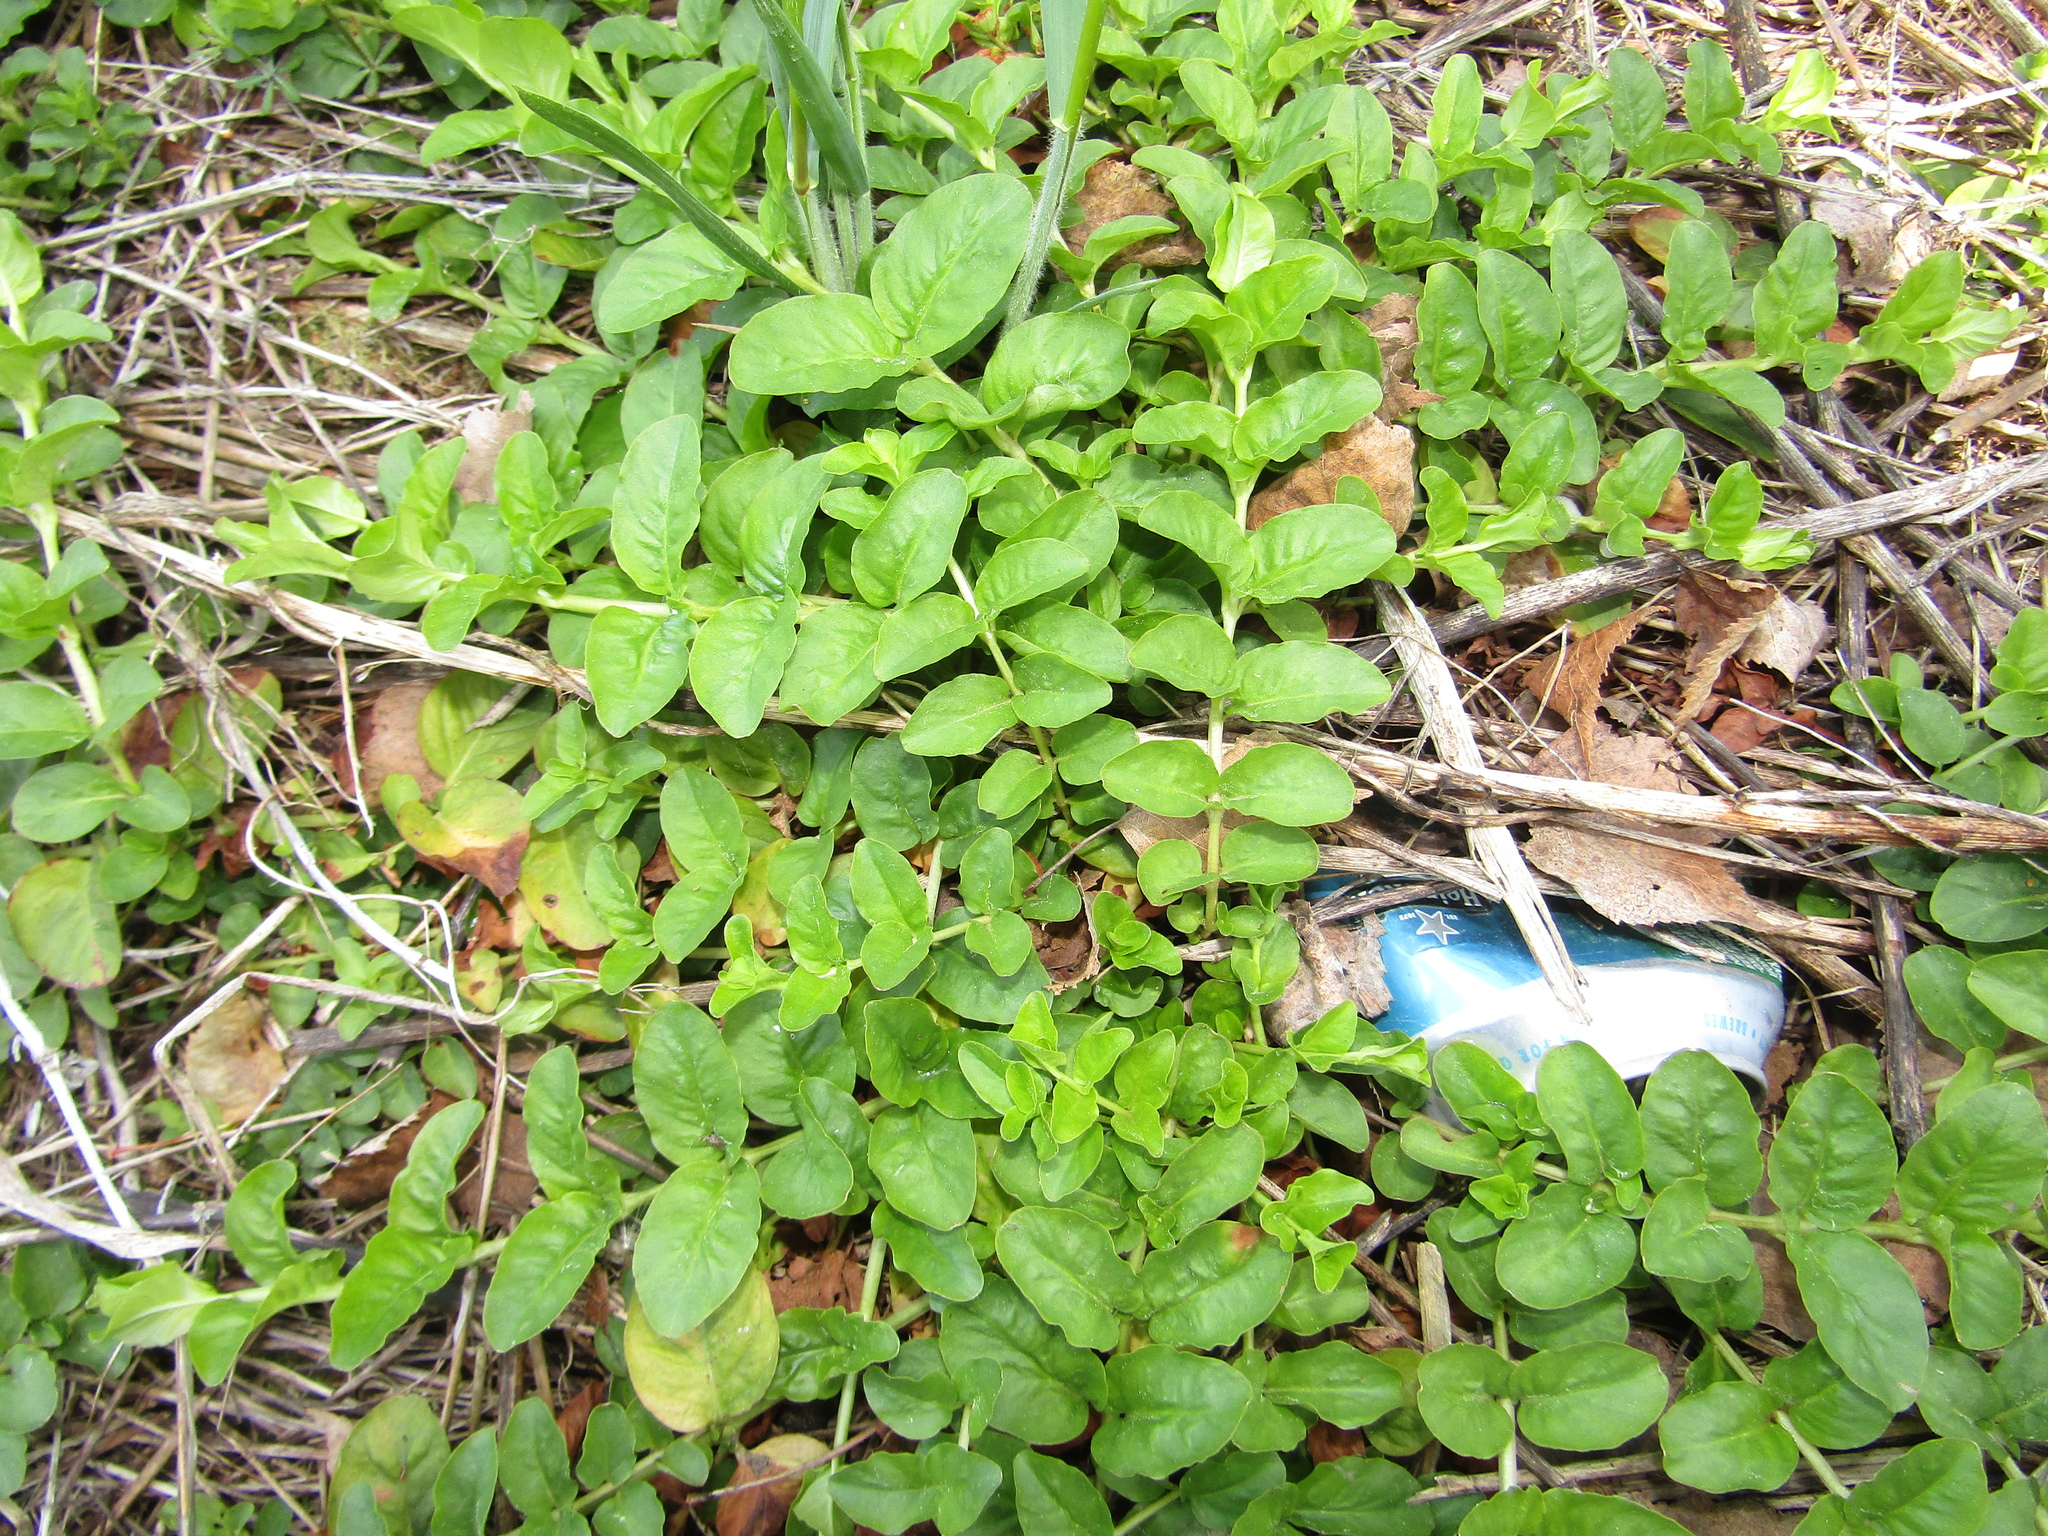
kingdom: Plantae
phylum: Tracheophyta
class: Magnoliopsida
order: Ericales
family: Primulaceae
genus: Lysimachia
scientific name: Lysimachia nummularia
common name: Moneywort
